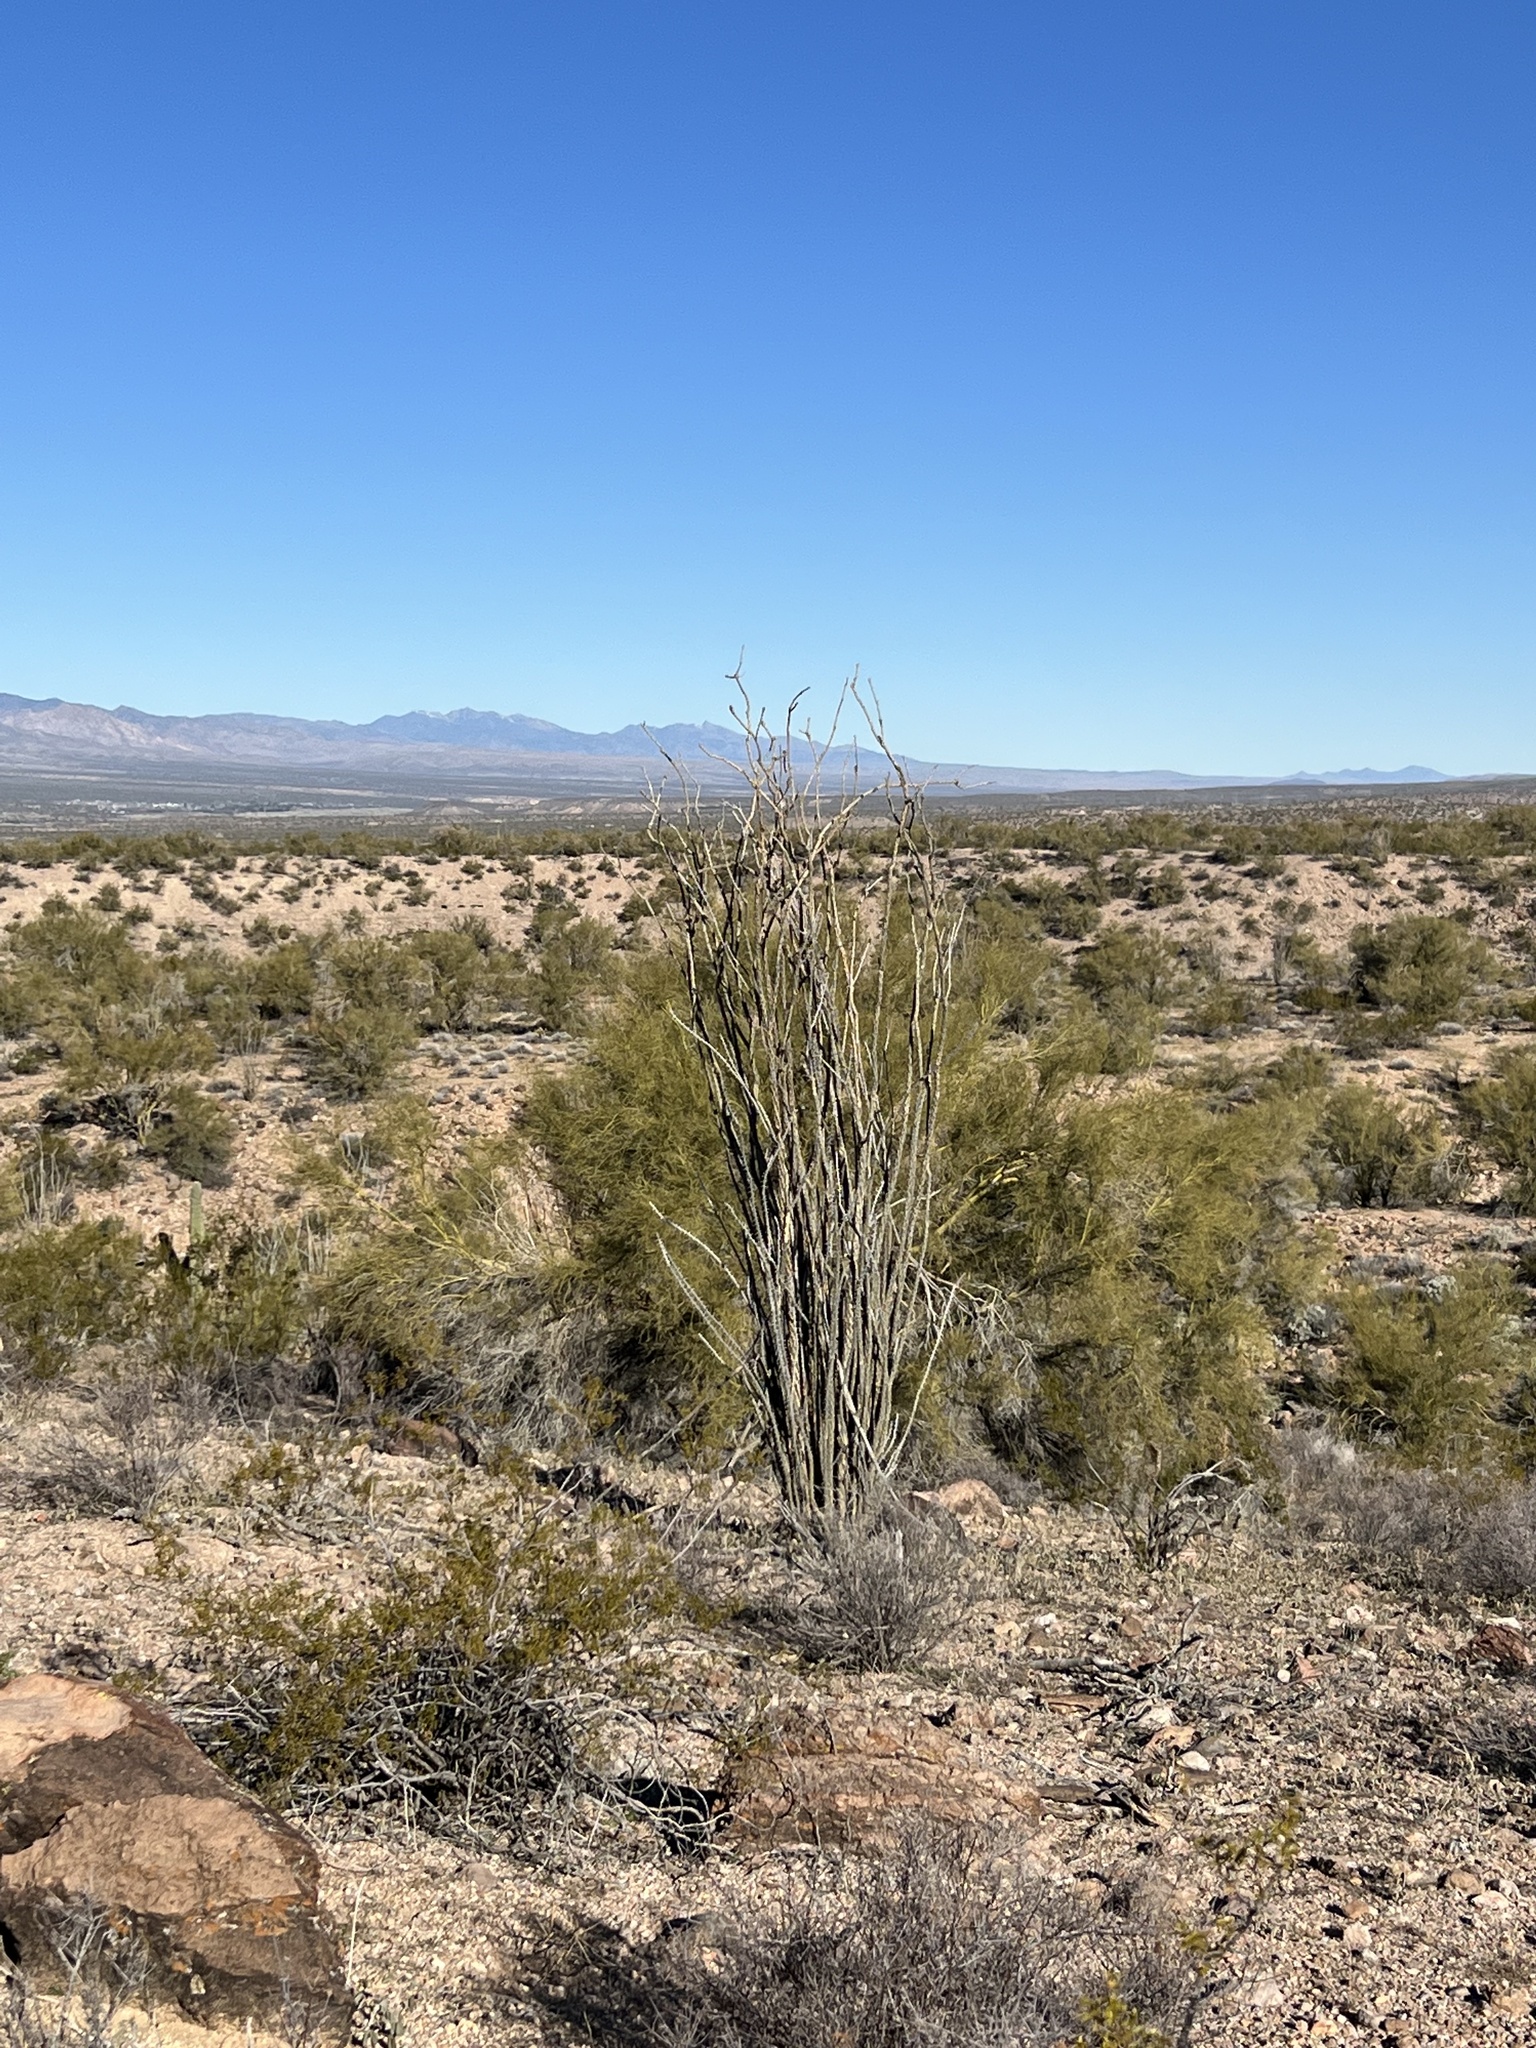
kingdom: Plantae
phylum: Tracheophyta
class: Magnoliopsida
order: Ericales
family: Fouquieriaceae
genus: Fouquieria
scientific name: Fouquieria splendens
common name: Vine-cactus
